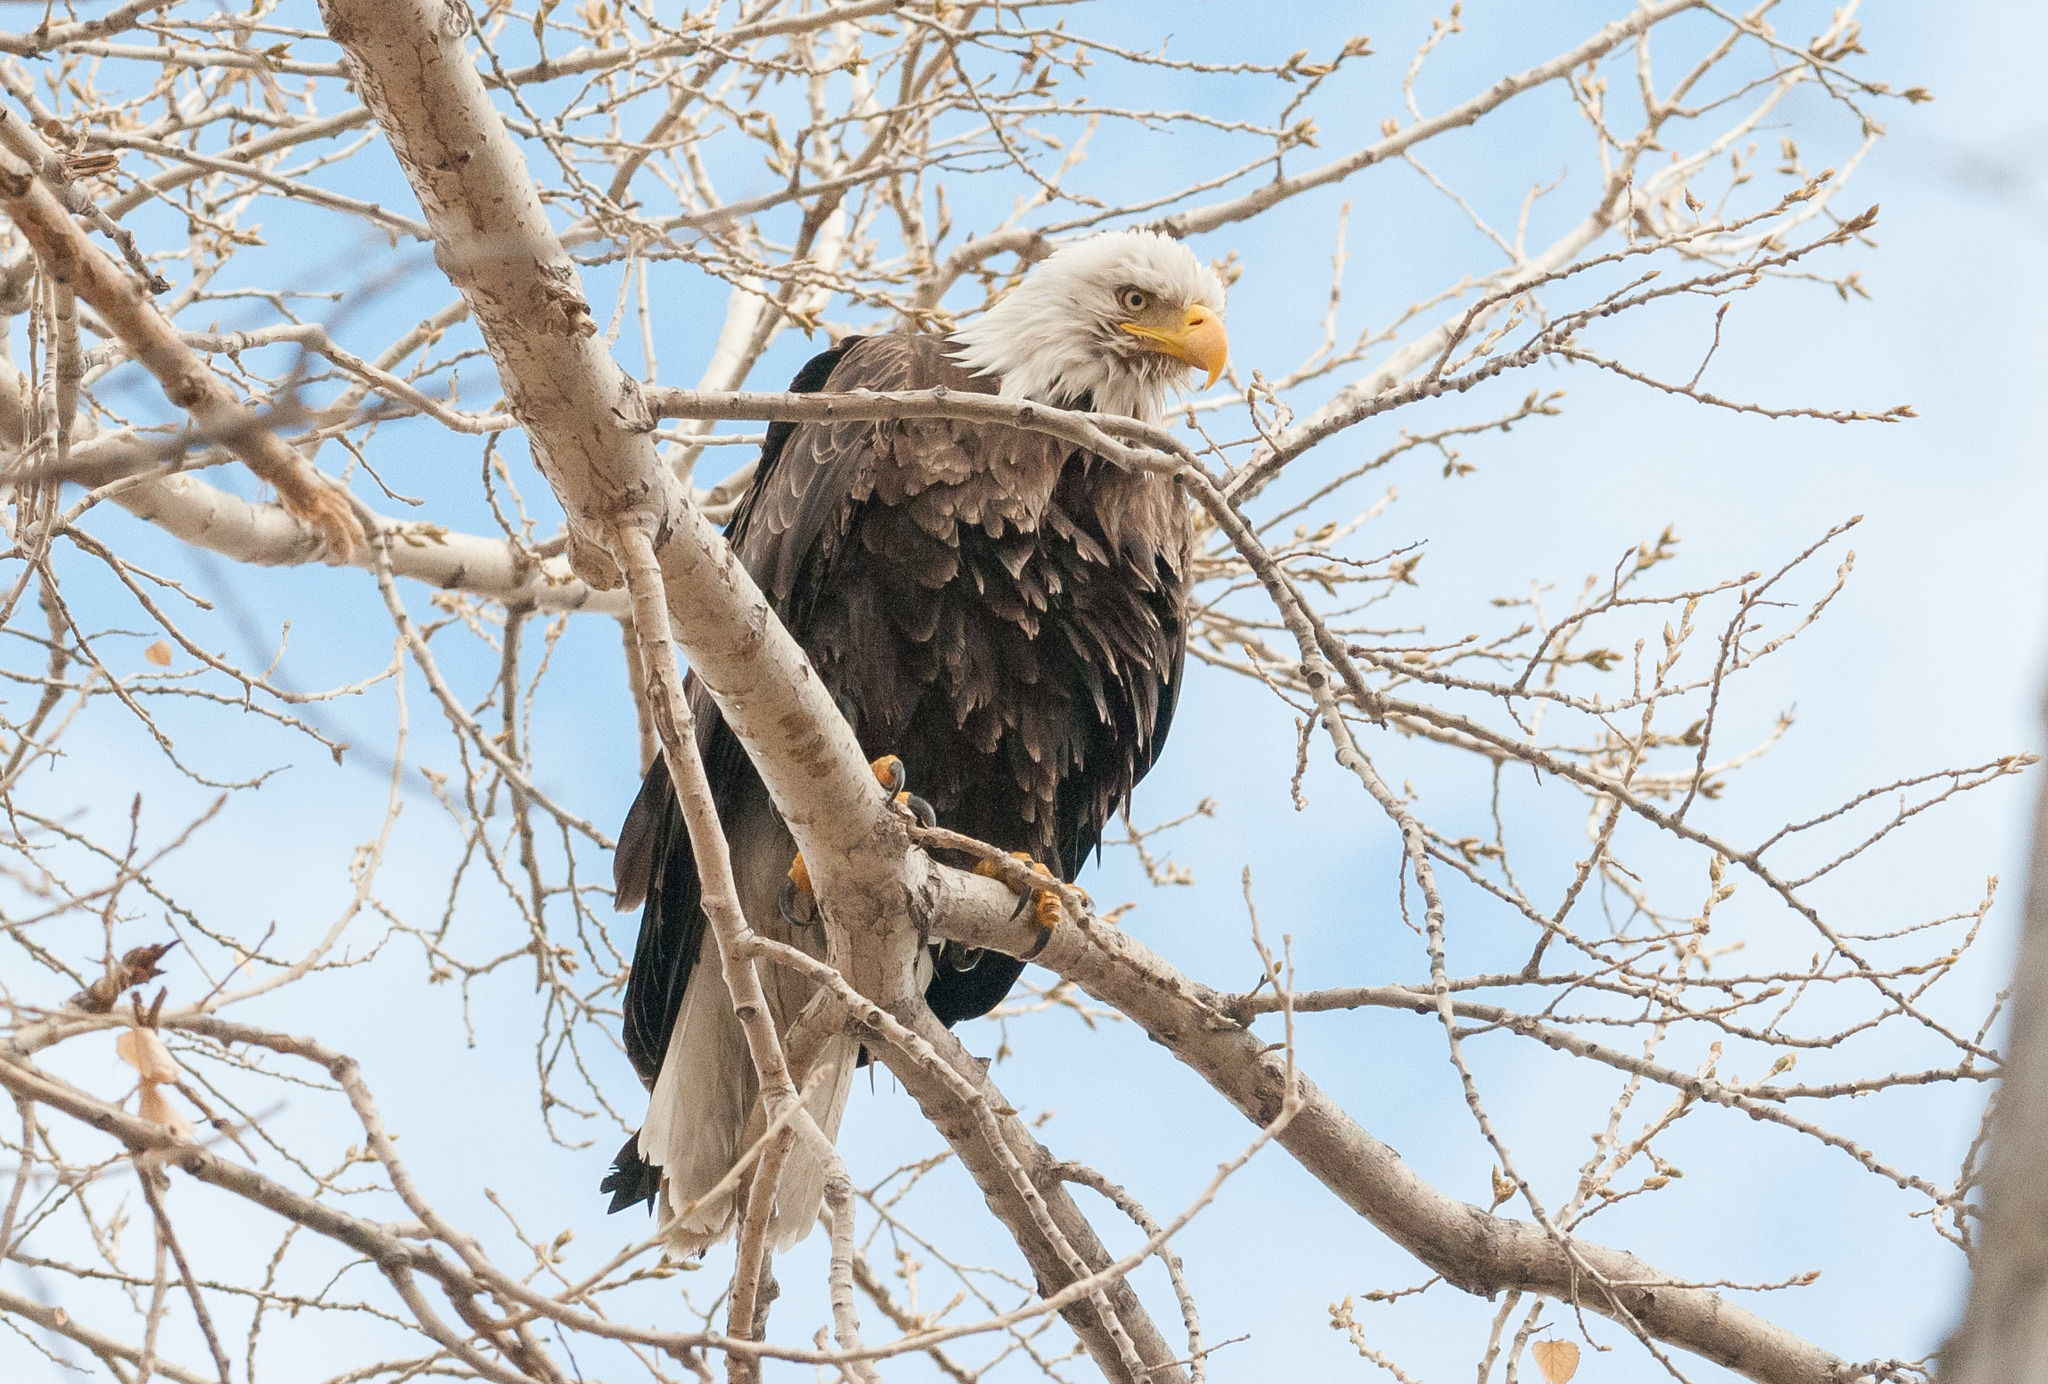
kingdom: Animalia
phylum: Chordata
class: Aves
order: Accipitriformes
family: Accipitridae
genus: Haliaeetus
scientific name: Haliaeetus leucocephalus
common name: Bald eagle
